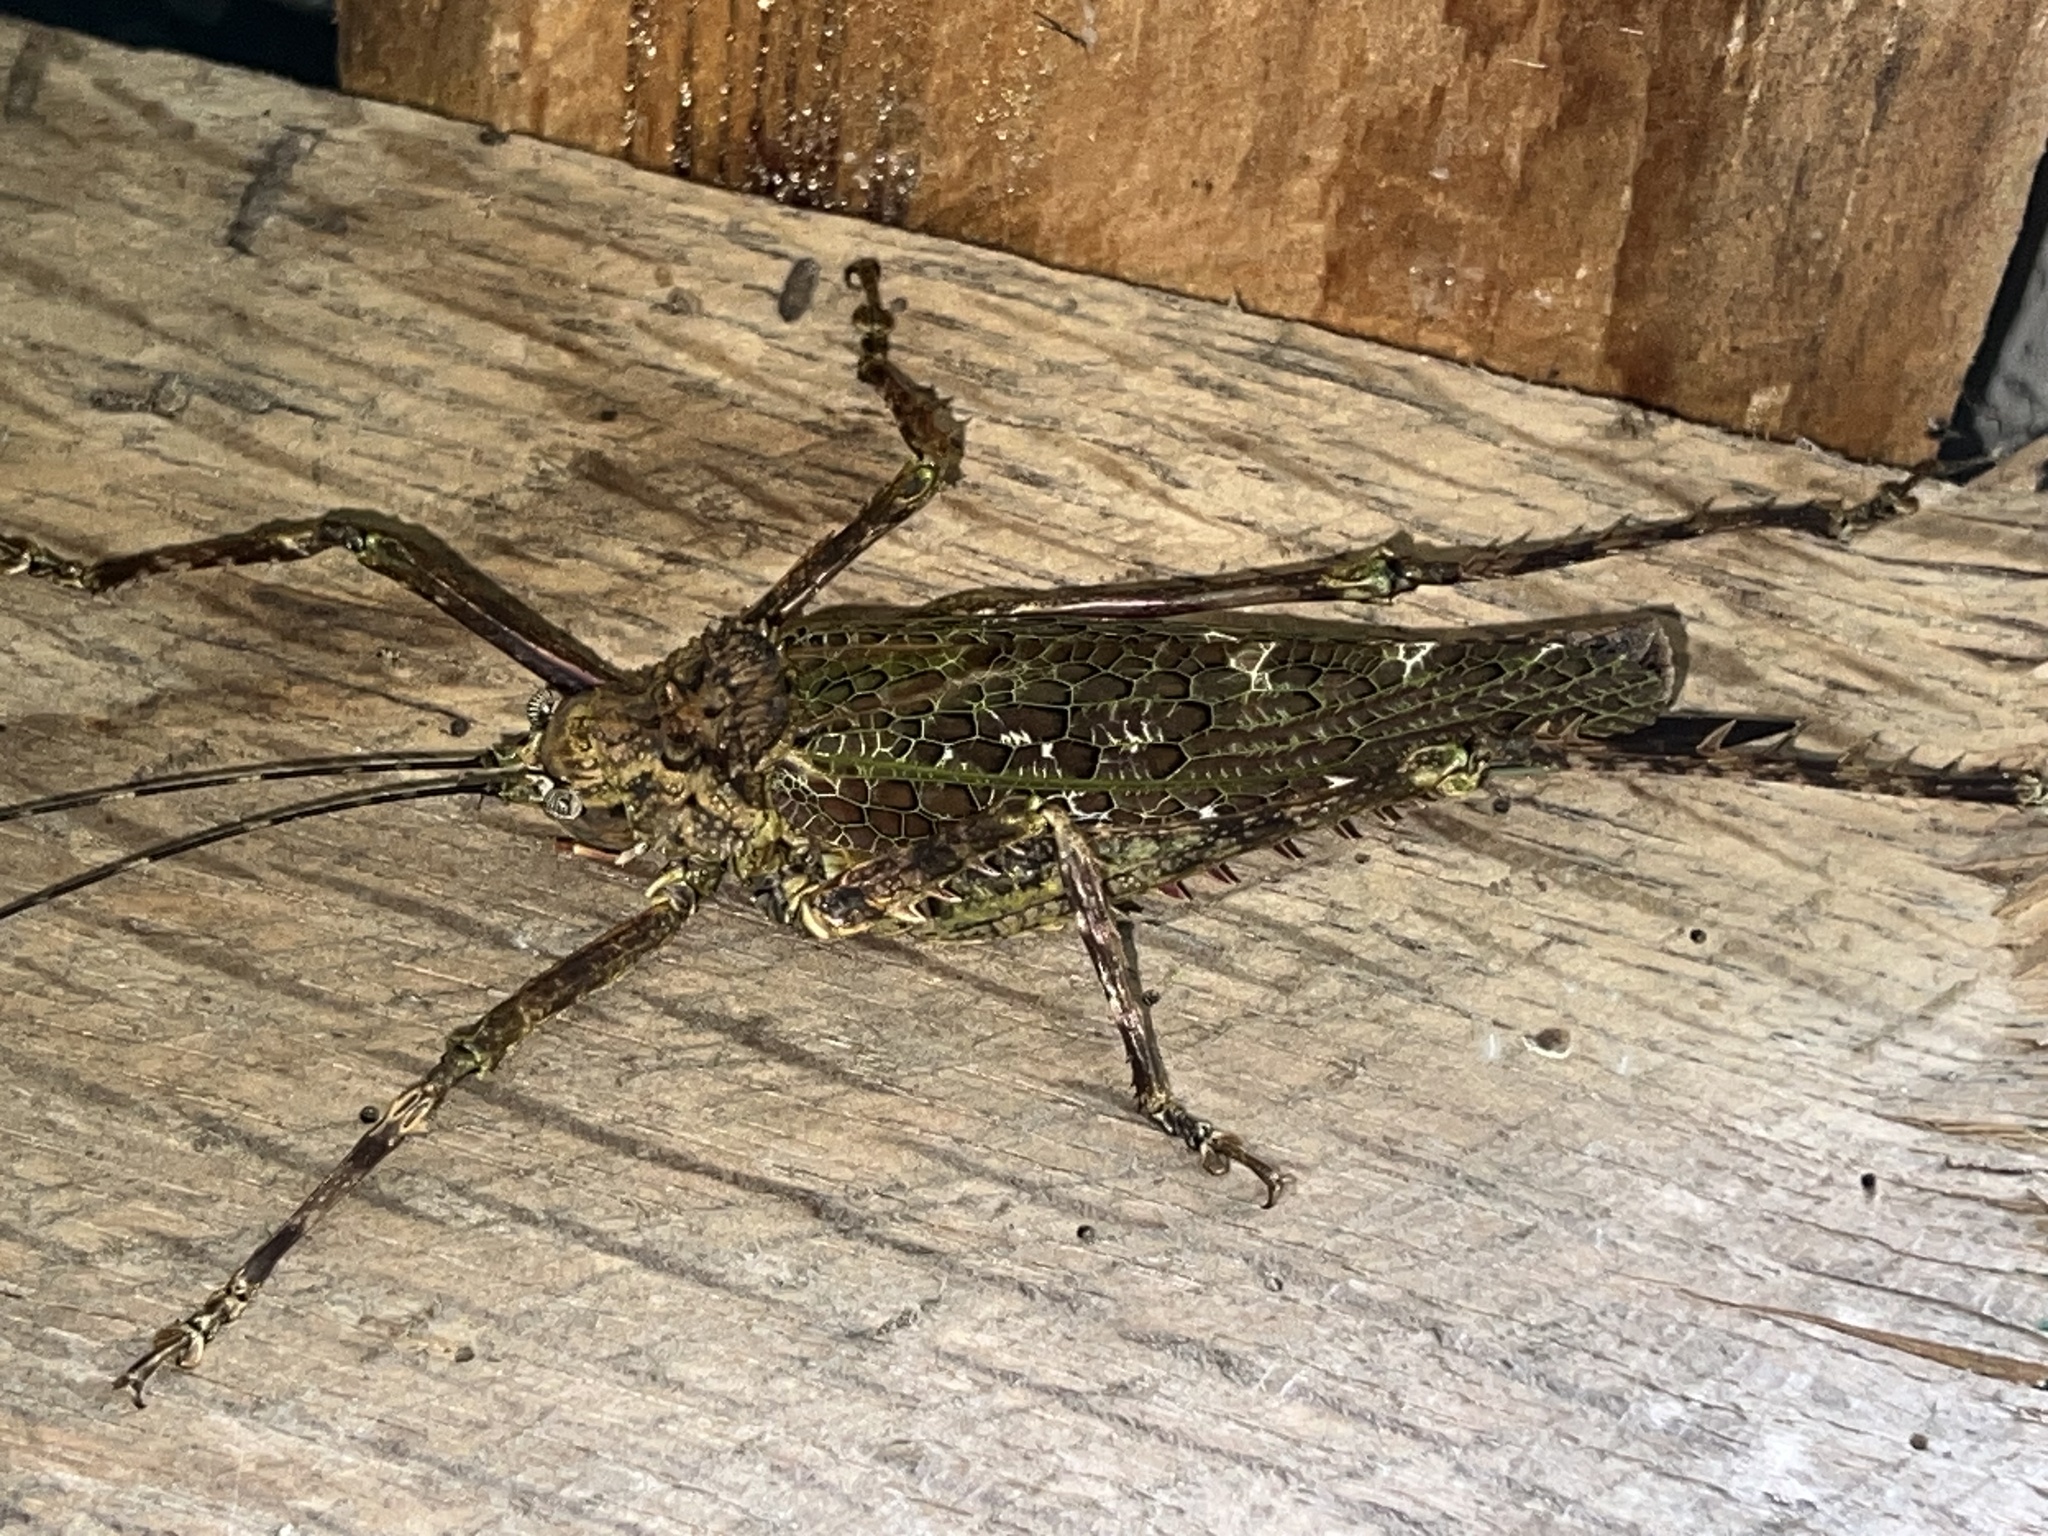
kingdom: Animalia
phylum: Arthropoda
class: Insecta
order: Orthoptera
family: Tettigoniidae
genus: Haemodiasma
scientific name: Haemodiasma tessellata
